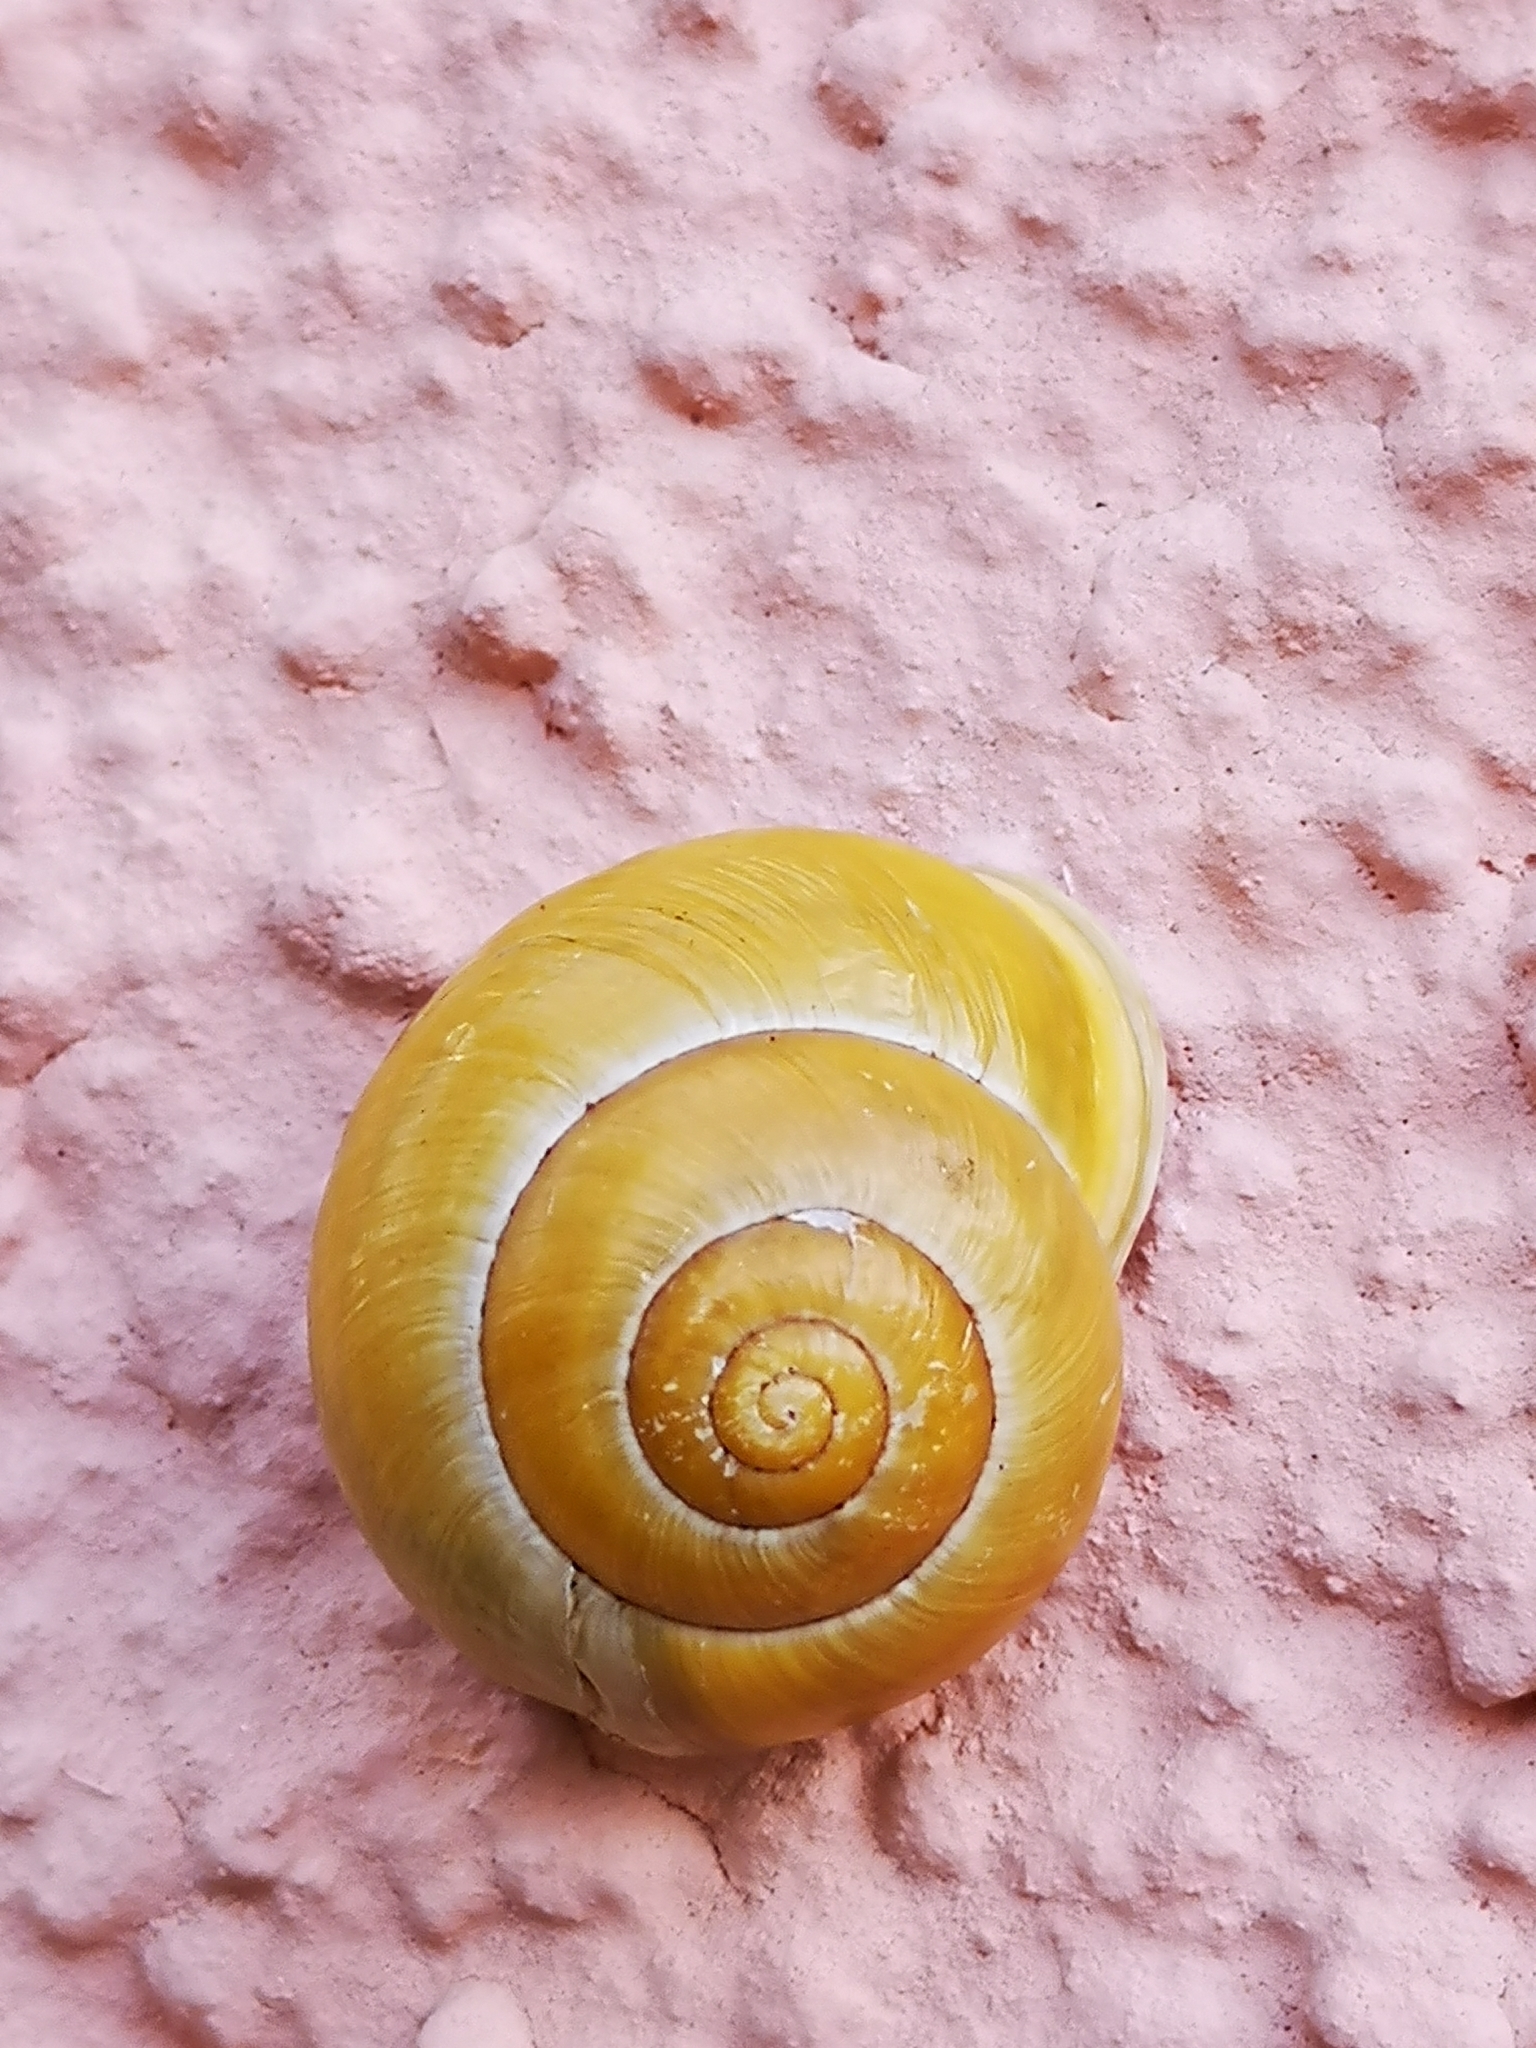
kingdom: Animalia
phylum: Mollusca
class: Gastropoda
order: Stylommatophora
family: Helicidae
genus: Cepaea
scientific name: Cepaea hortensis
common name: White-lip gardensnail
